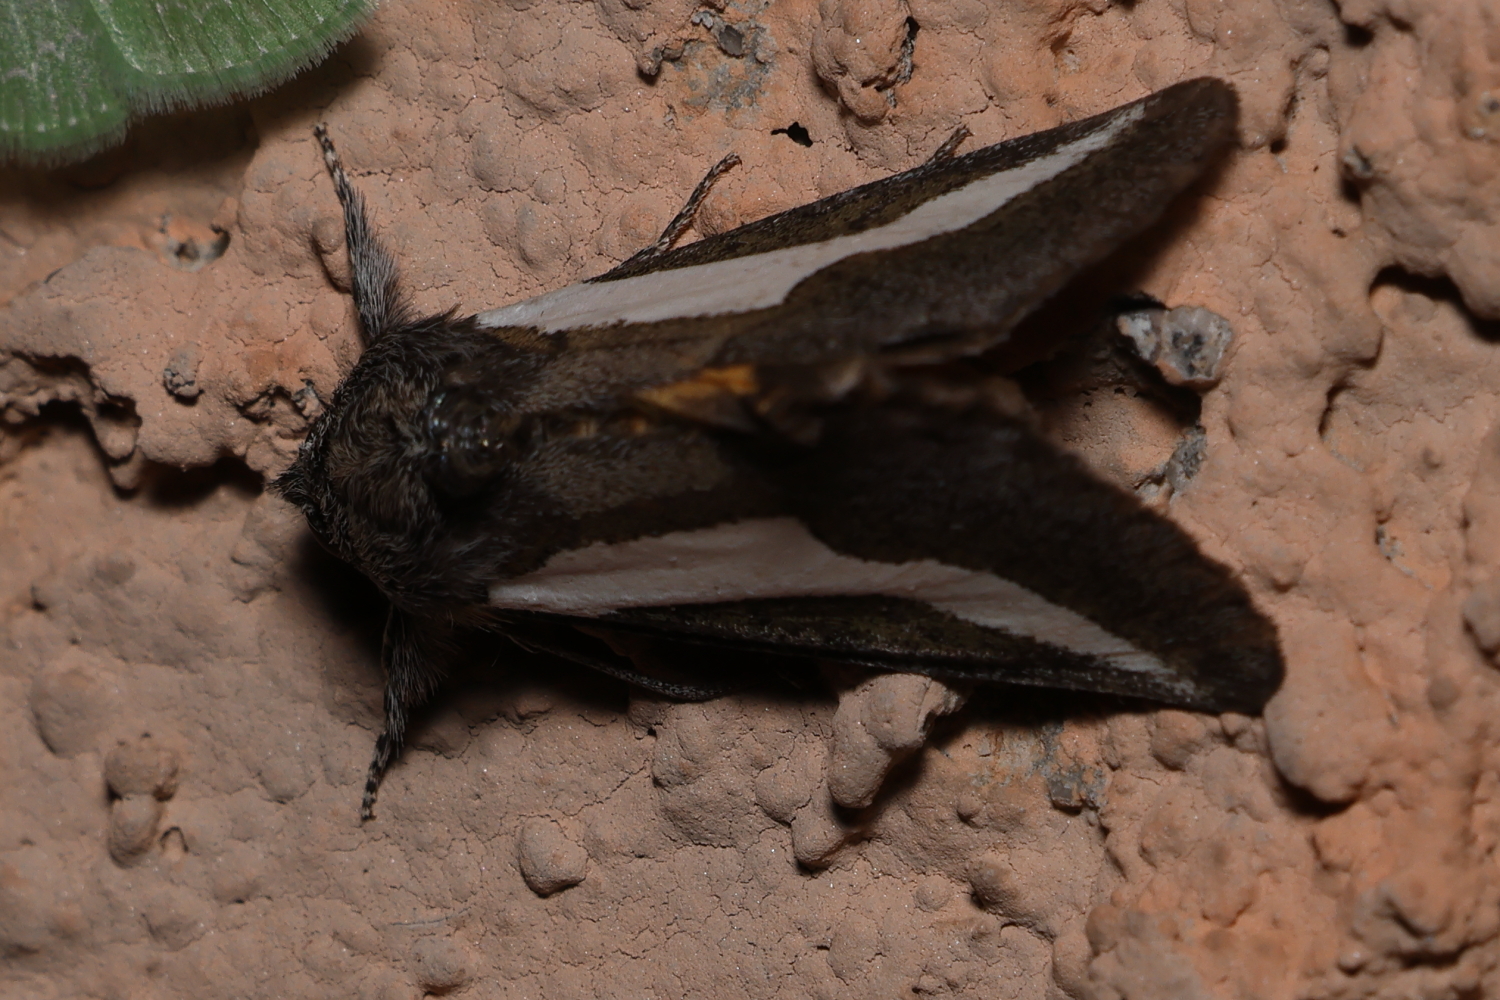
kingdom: Animalia
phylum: Arthropoda
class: Insecta
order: Lepidoptera
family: Noctuidae
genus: Euscirrhopterus
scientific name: Euscirrhopterus cosyra
